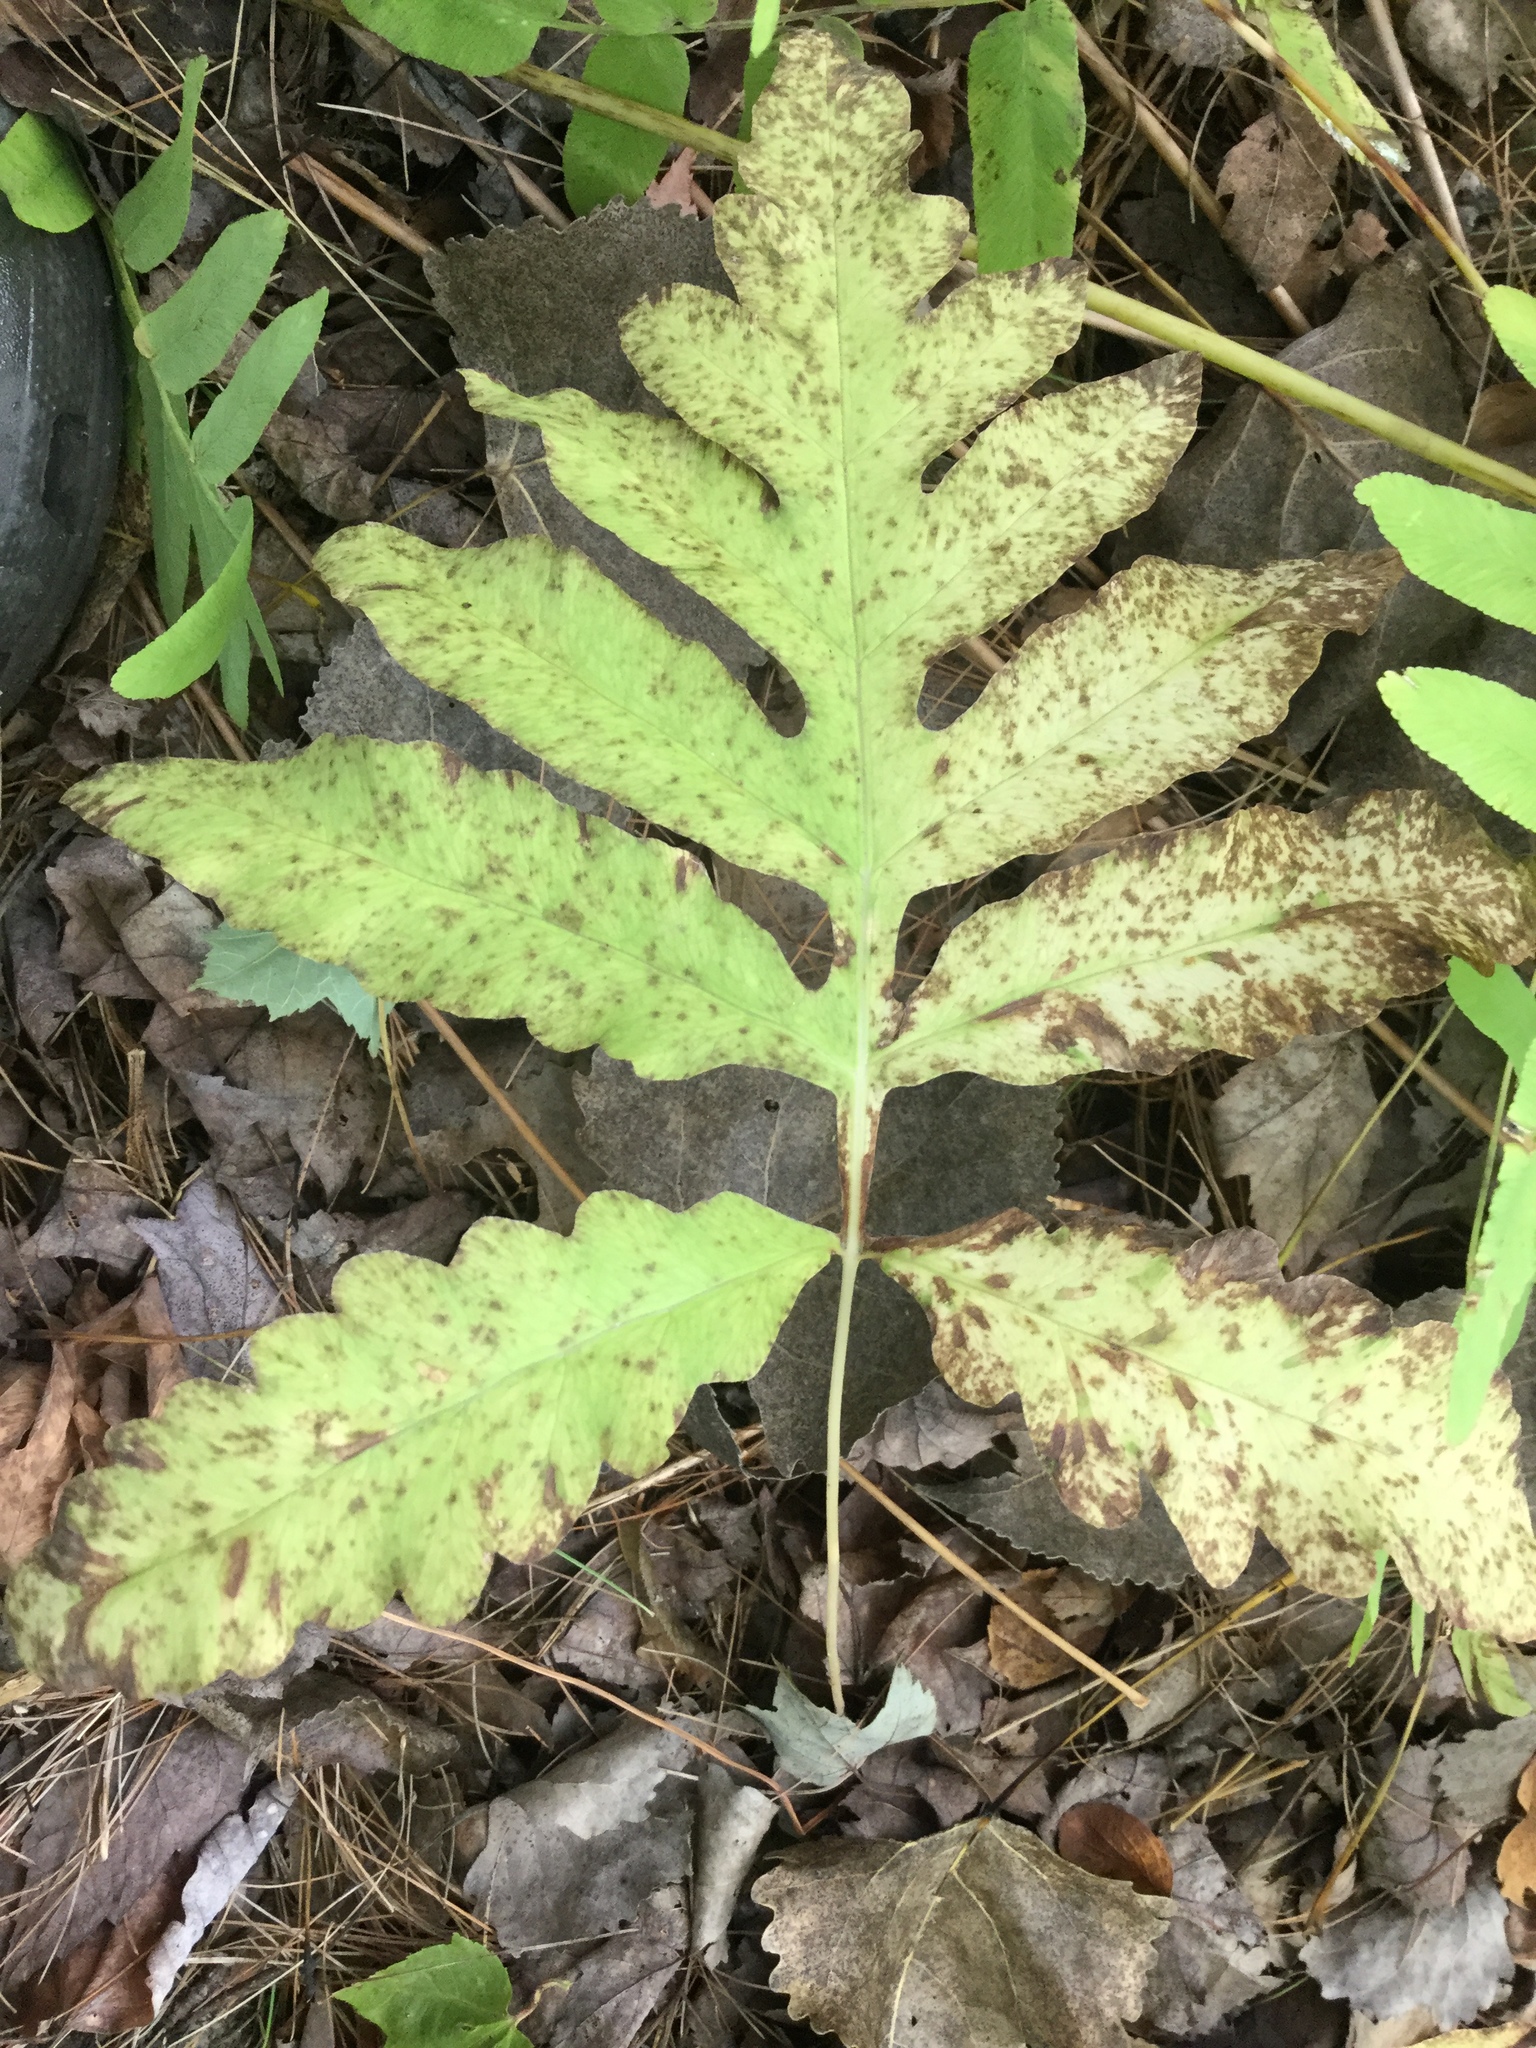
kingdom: Plantae
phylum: Tracheophyta
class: Polypodiopsida
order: Polypodiales
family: Onocleaceae
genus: Onoclea
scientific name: Onoclea sensibilis
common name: Sensitive fern
